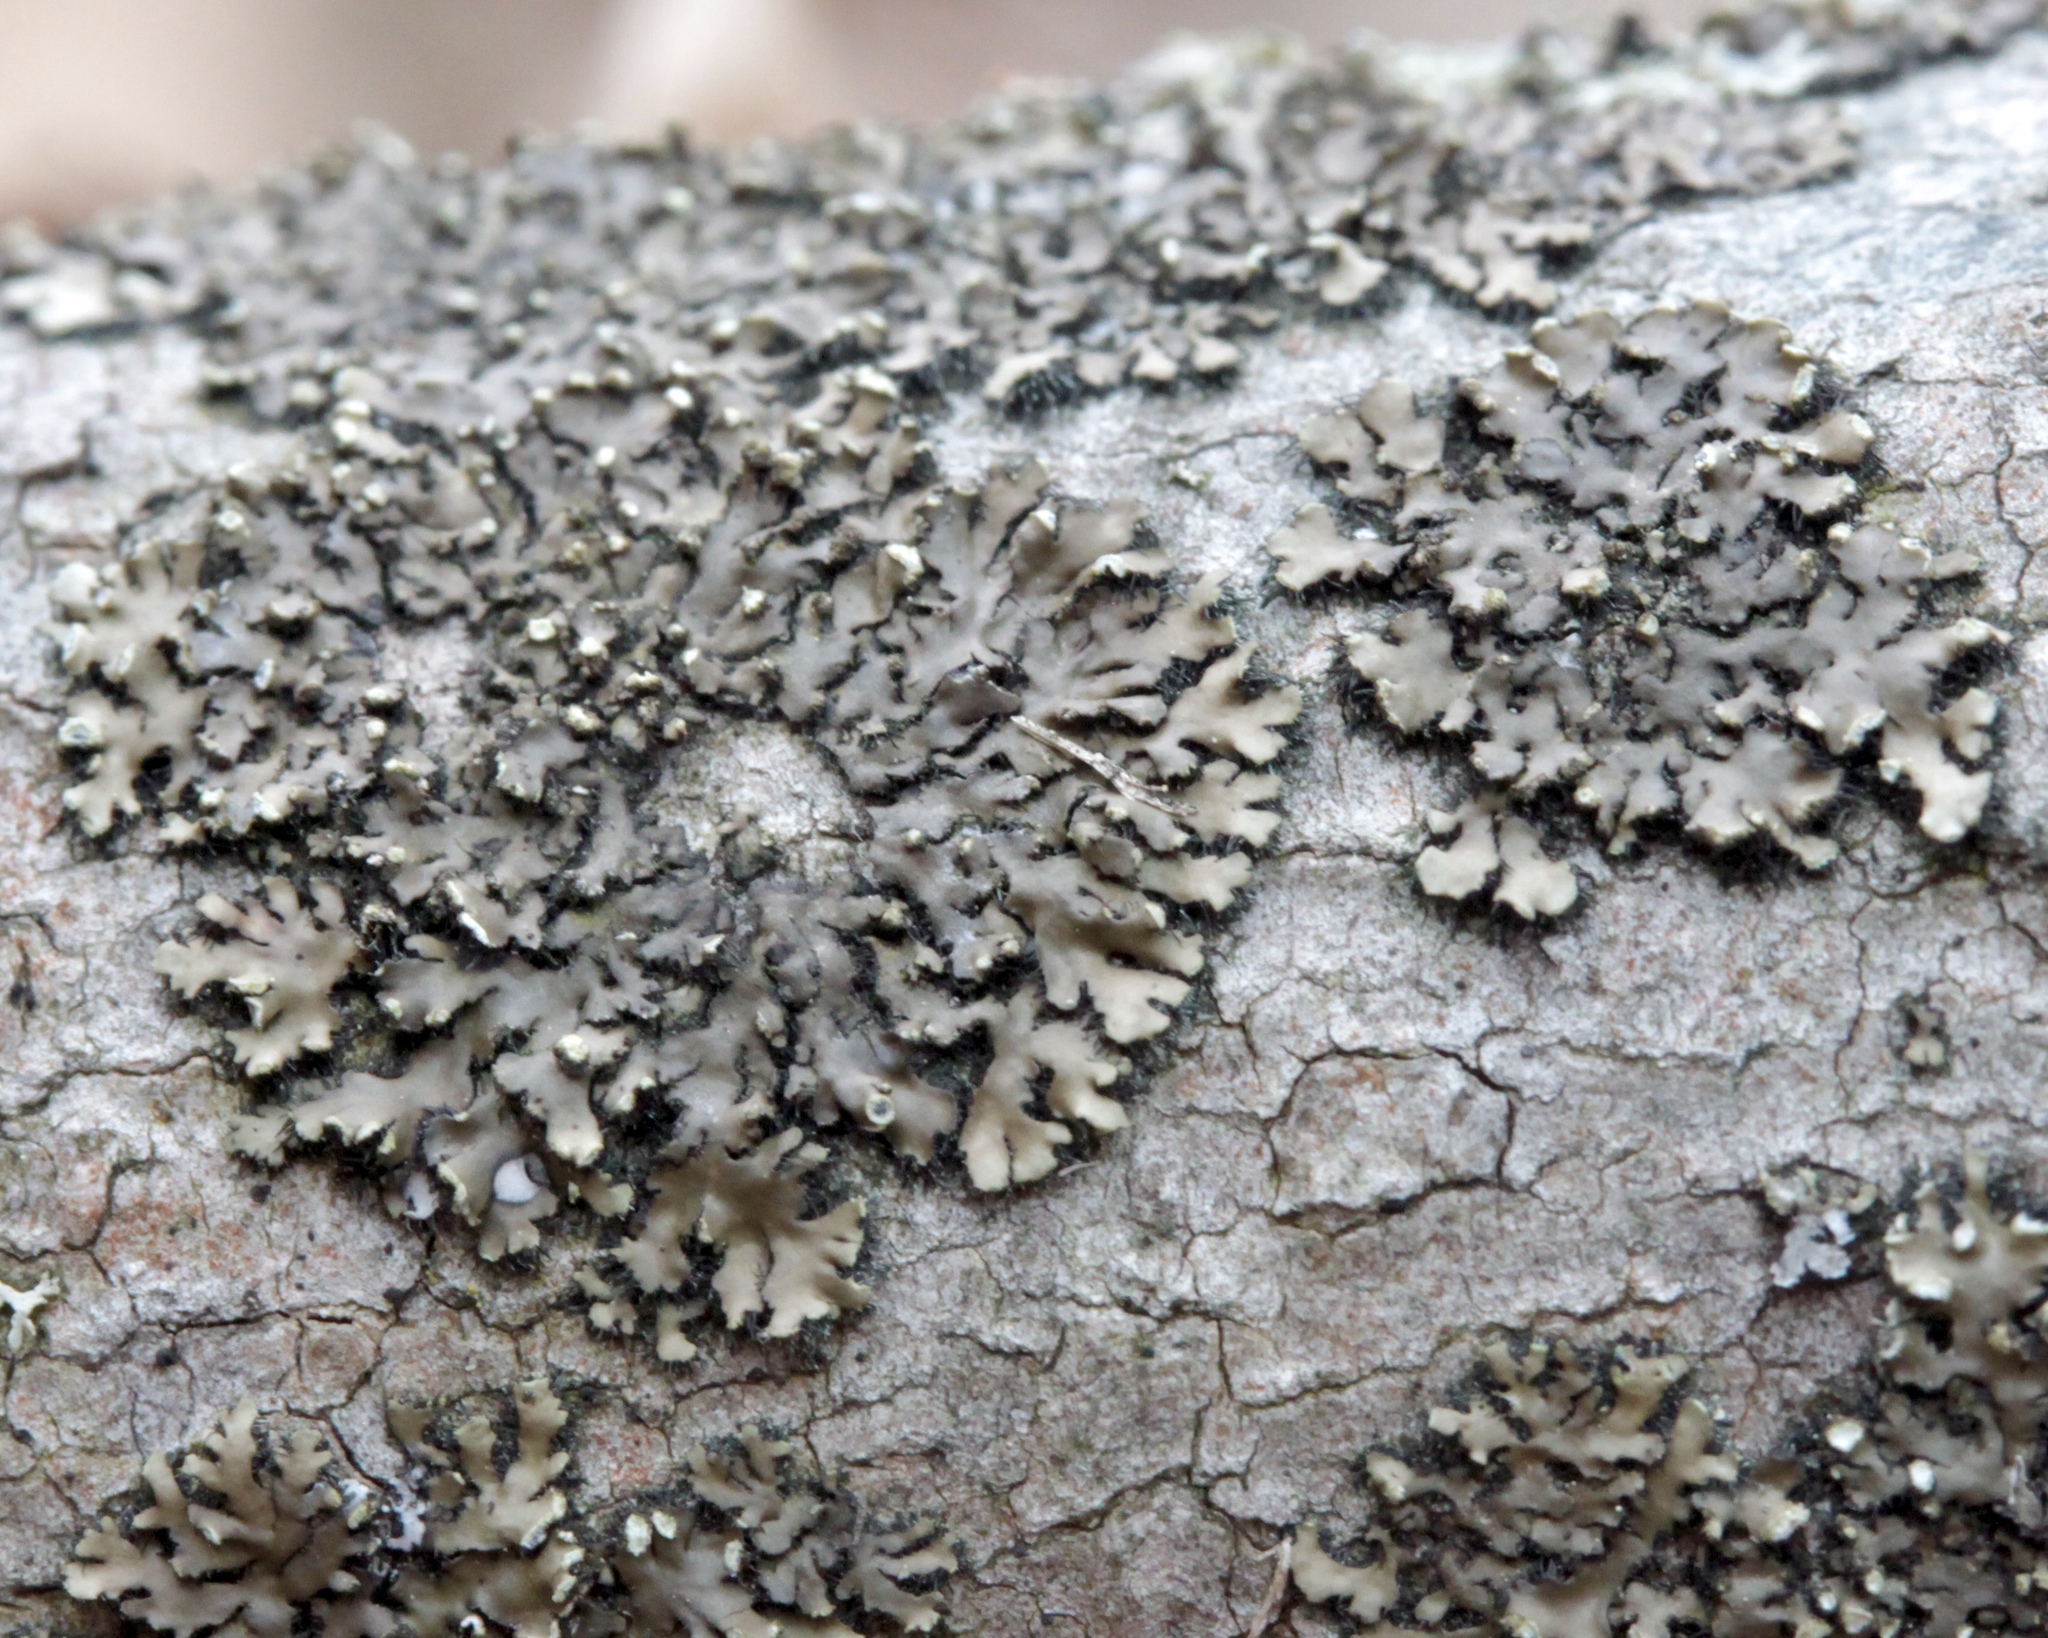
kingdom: Fungi
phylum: Ascomycota
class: Lecanoromycetes
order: Caliciales
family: Physciaceae
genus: Phaeophyscia
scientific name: Phaeophyscia rubropulchra
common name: Orange-cored shadow lichen
